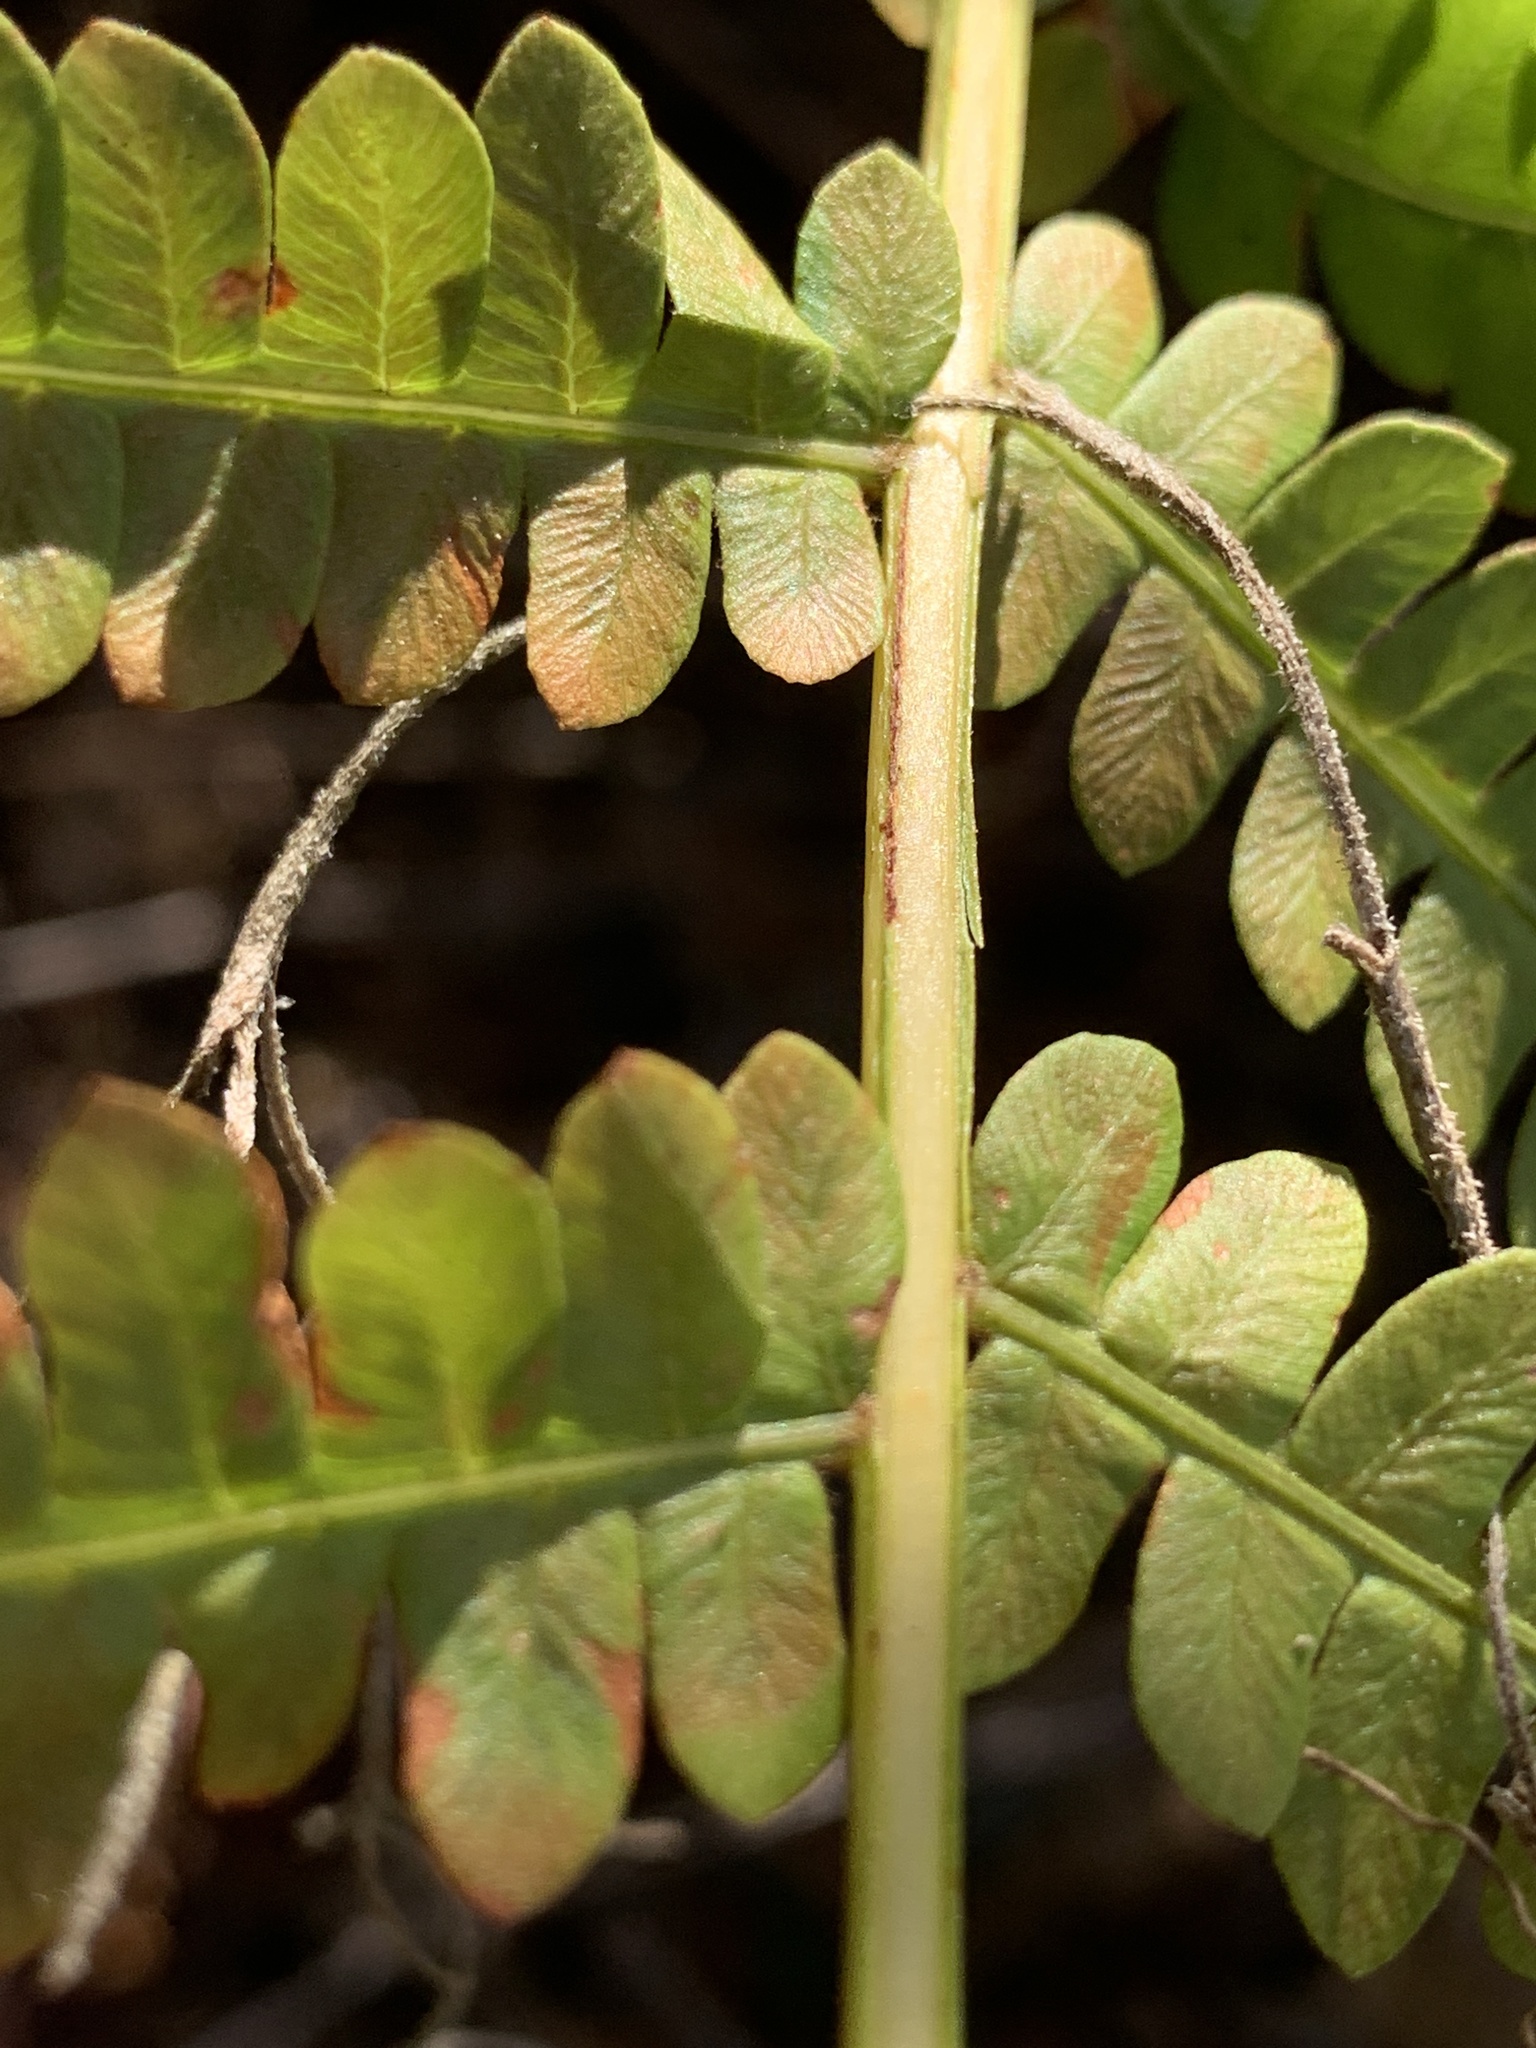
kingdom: Plantae
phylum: Tracheophyta
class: Polypodiopsida
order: Osmundales
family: Osmundaceae
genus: Osmundastrum
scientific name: Osmundastrum cinnamomeum
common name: Cinnamon fern
